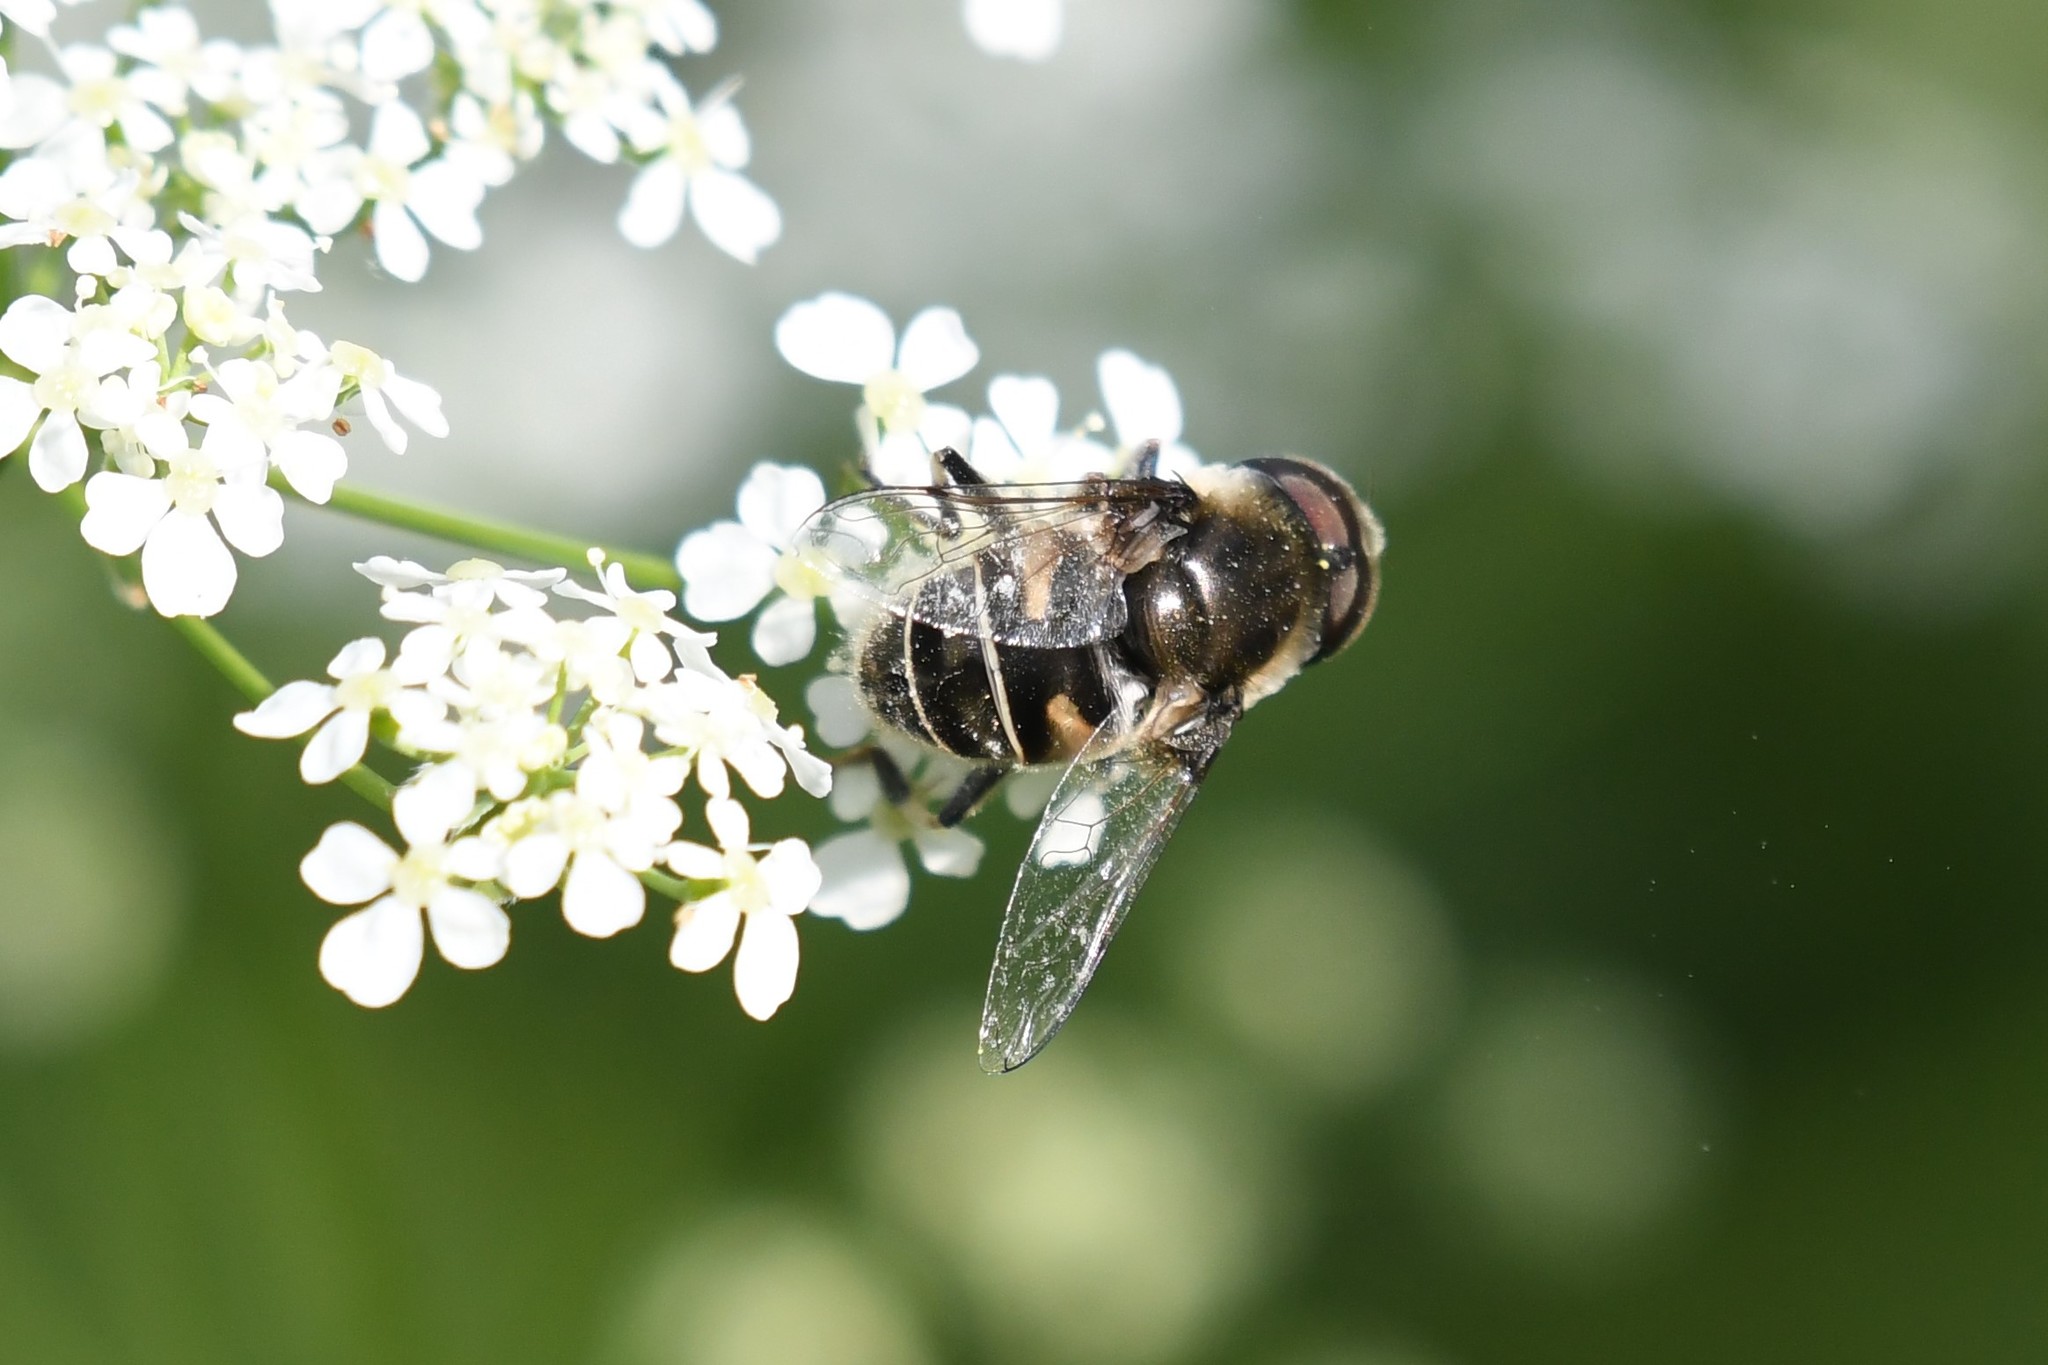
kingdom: Animalia
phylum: Arthropoda
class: Insecta
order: Diptera
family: Syrphidae
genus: Eristalis
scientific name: Eristalis dimidiata
